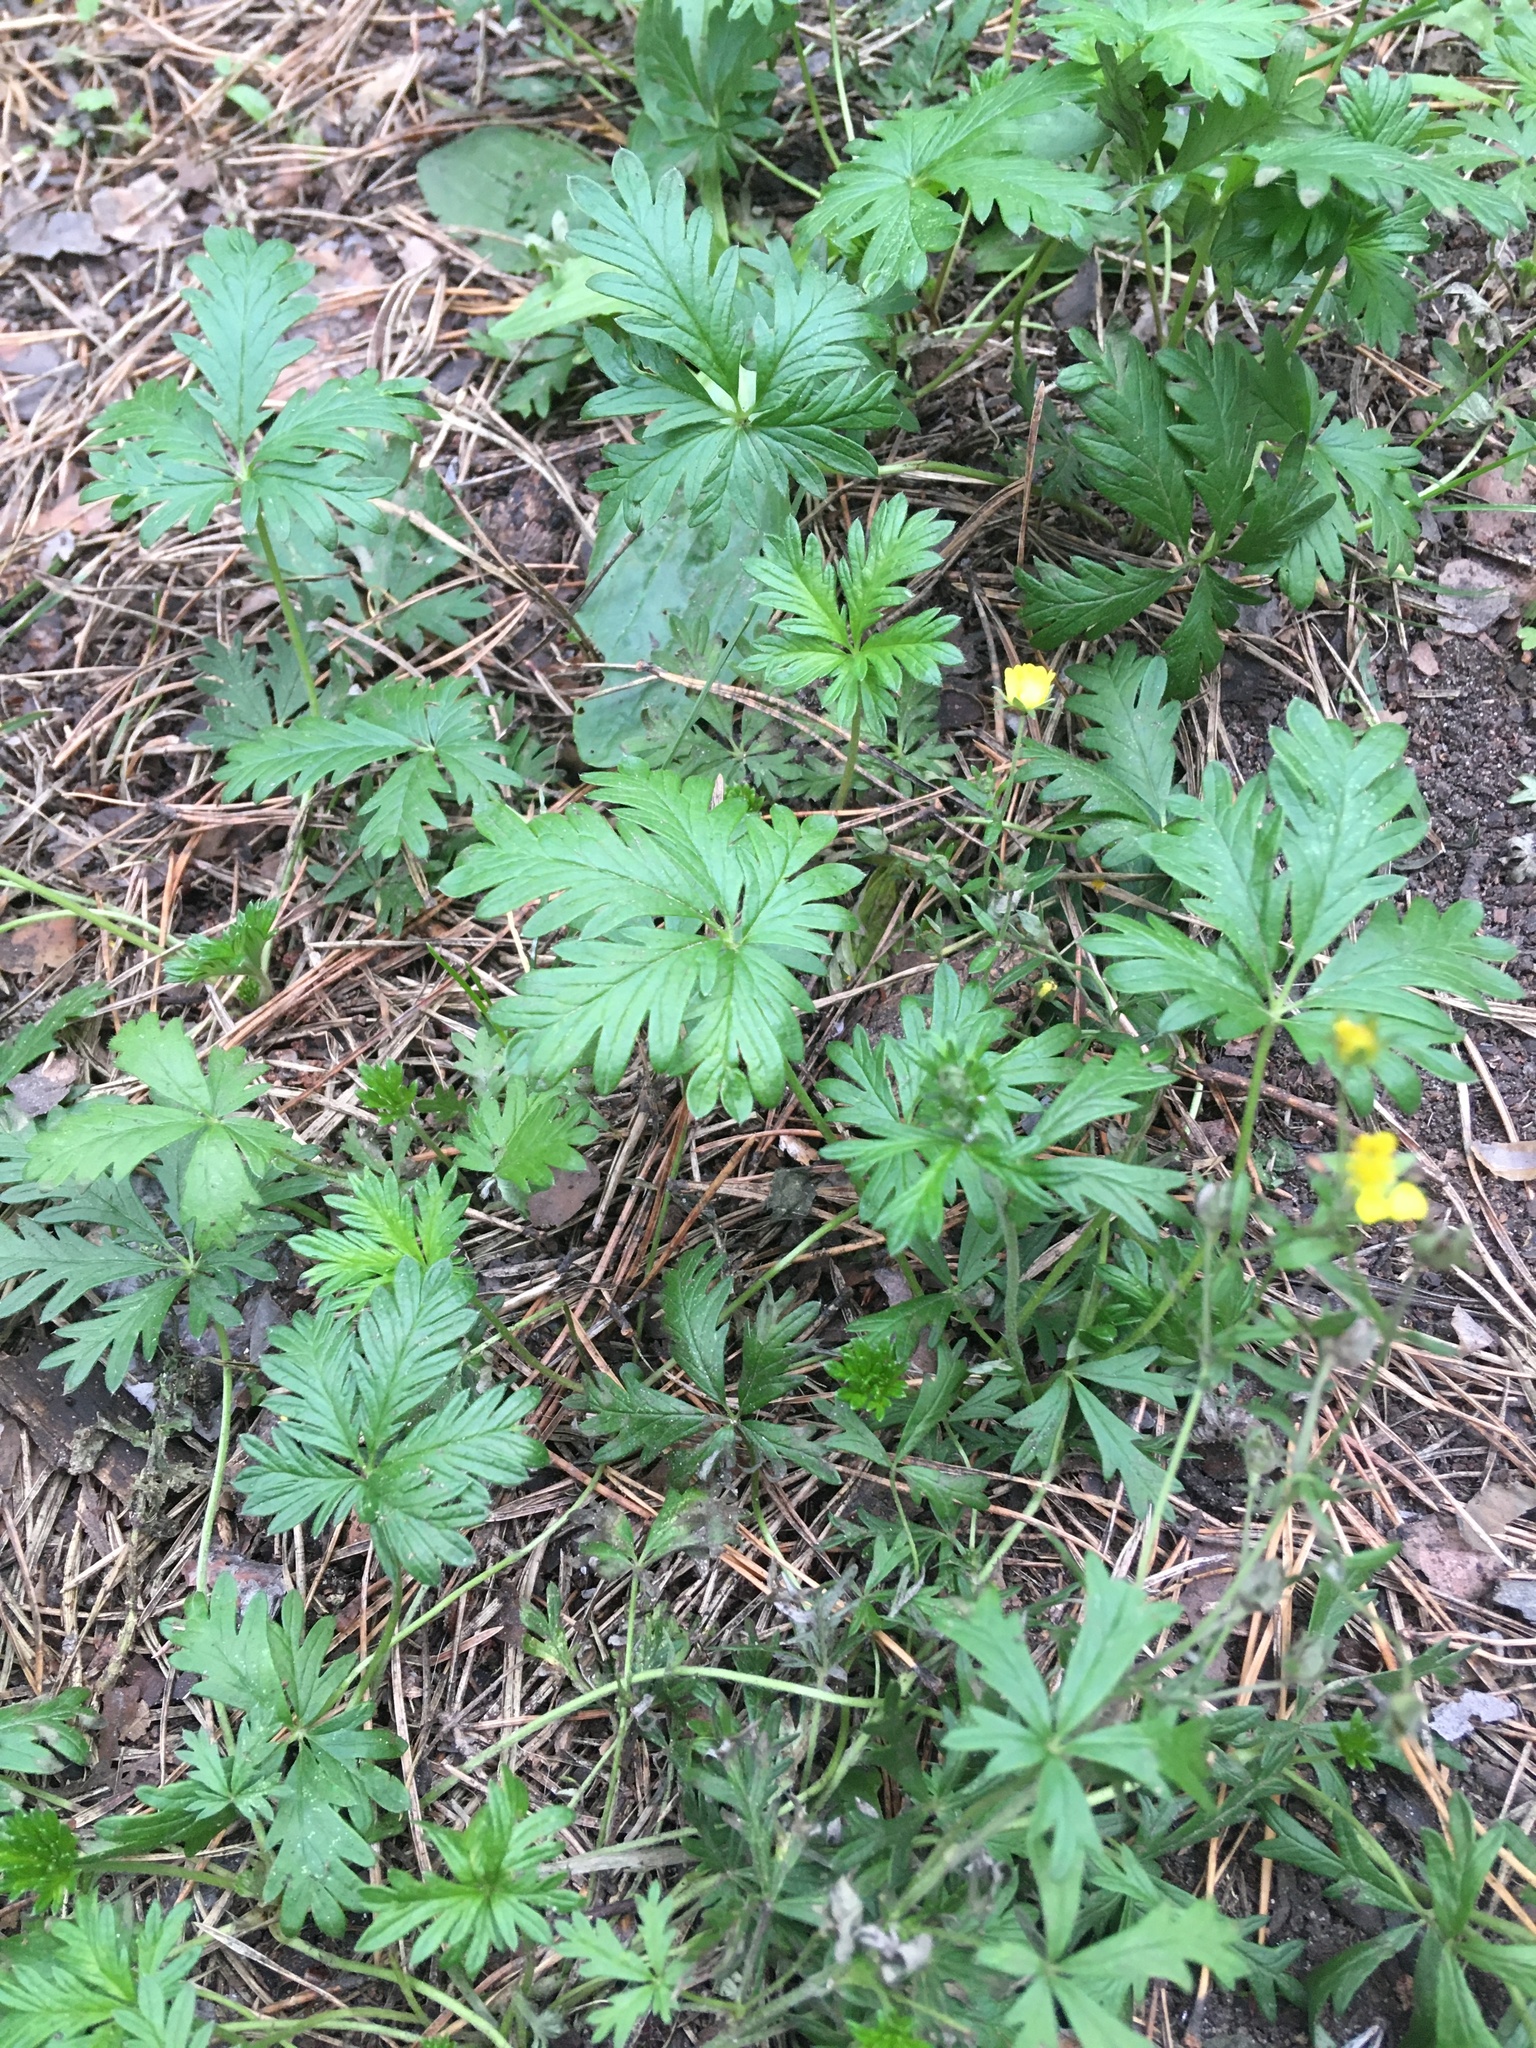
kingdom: Plantae
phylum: Tracheophyta
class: Magnoliopsida
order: Rosales
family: Rosaceae
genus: Potentilla
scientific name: Potentilla angarensis
